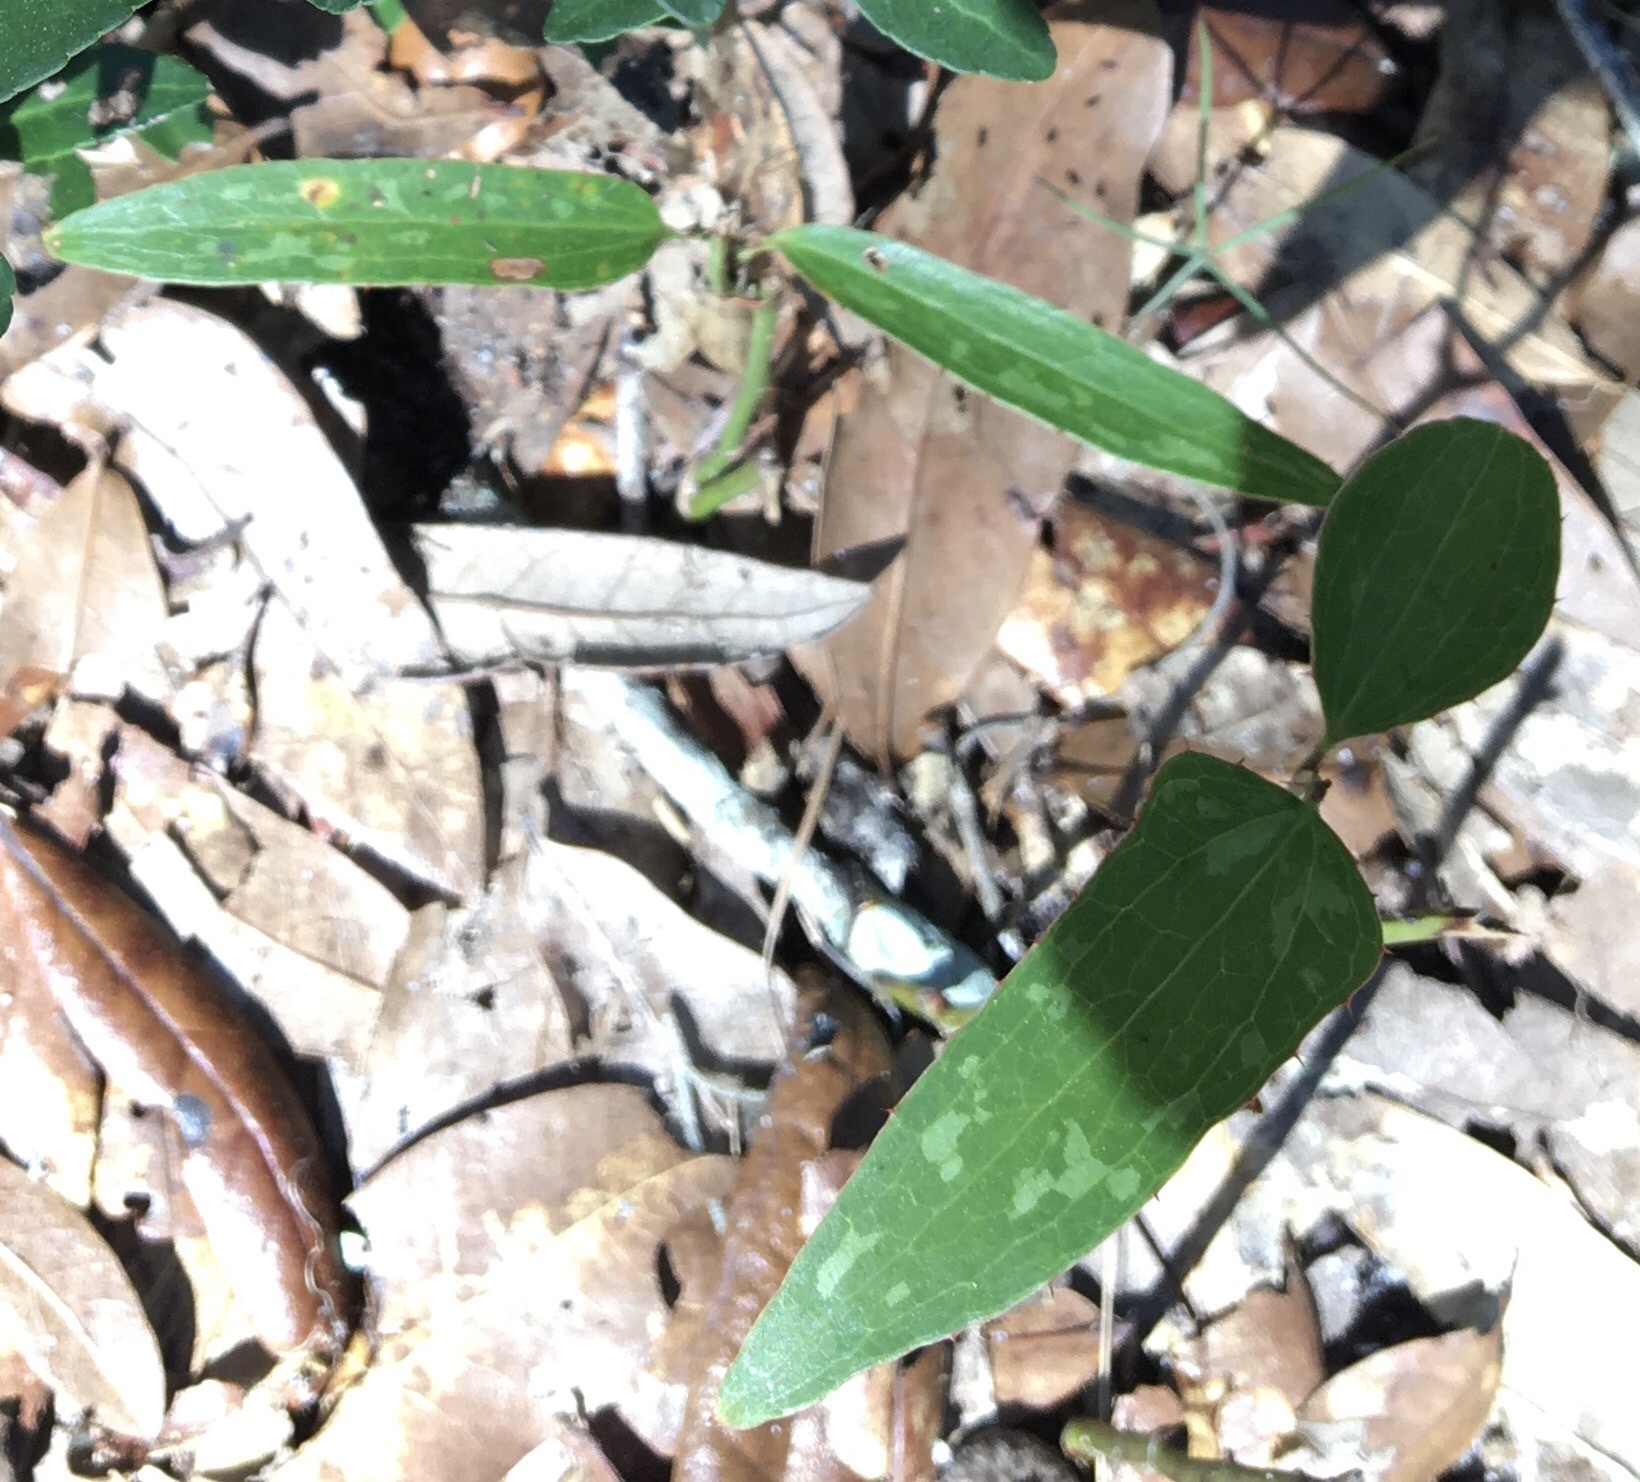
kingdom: Plantae
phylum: Tracheophyta
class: Liliopsida
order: Liliales
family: Smilacaceae
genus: Smilax
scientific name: Smilax bona-nox
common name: Catbrier
